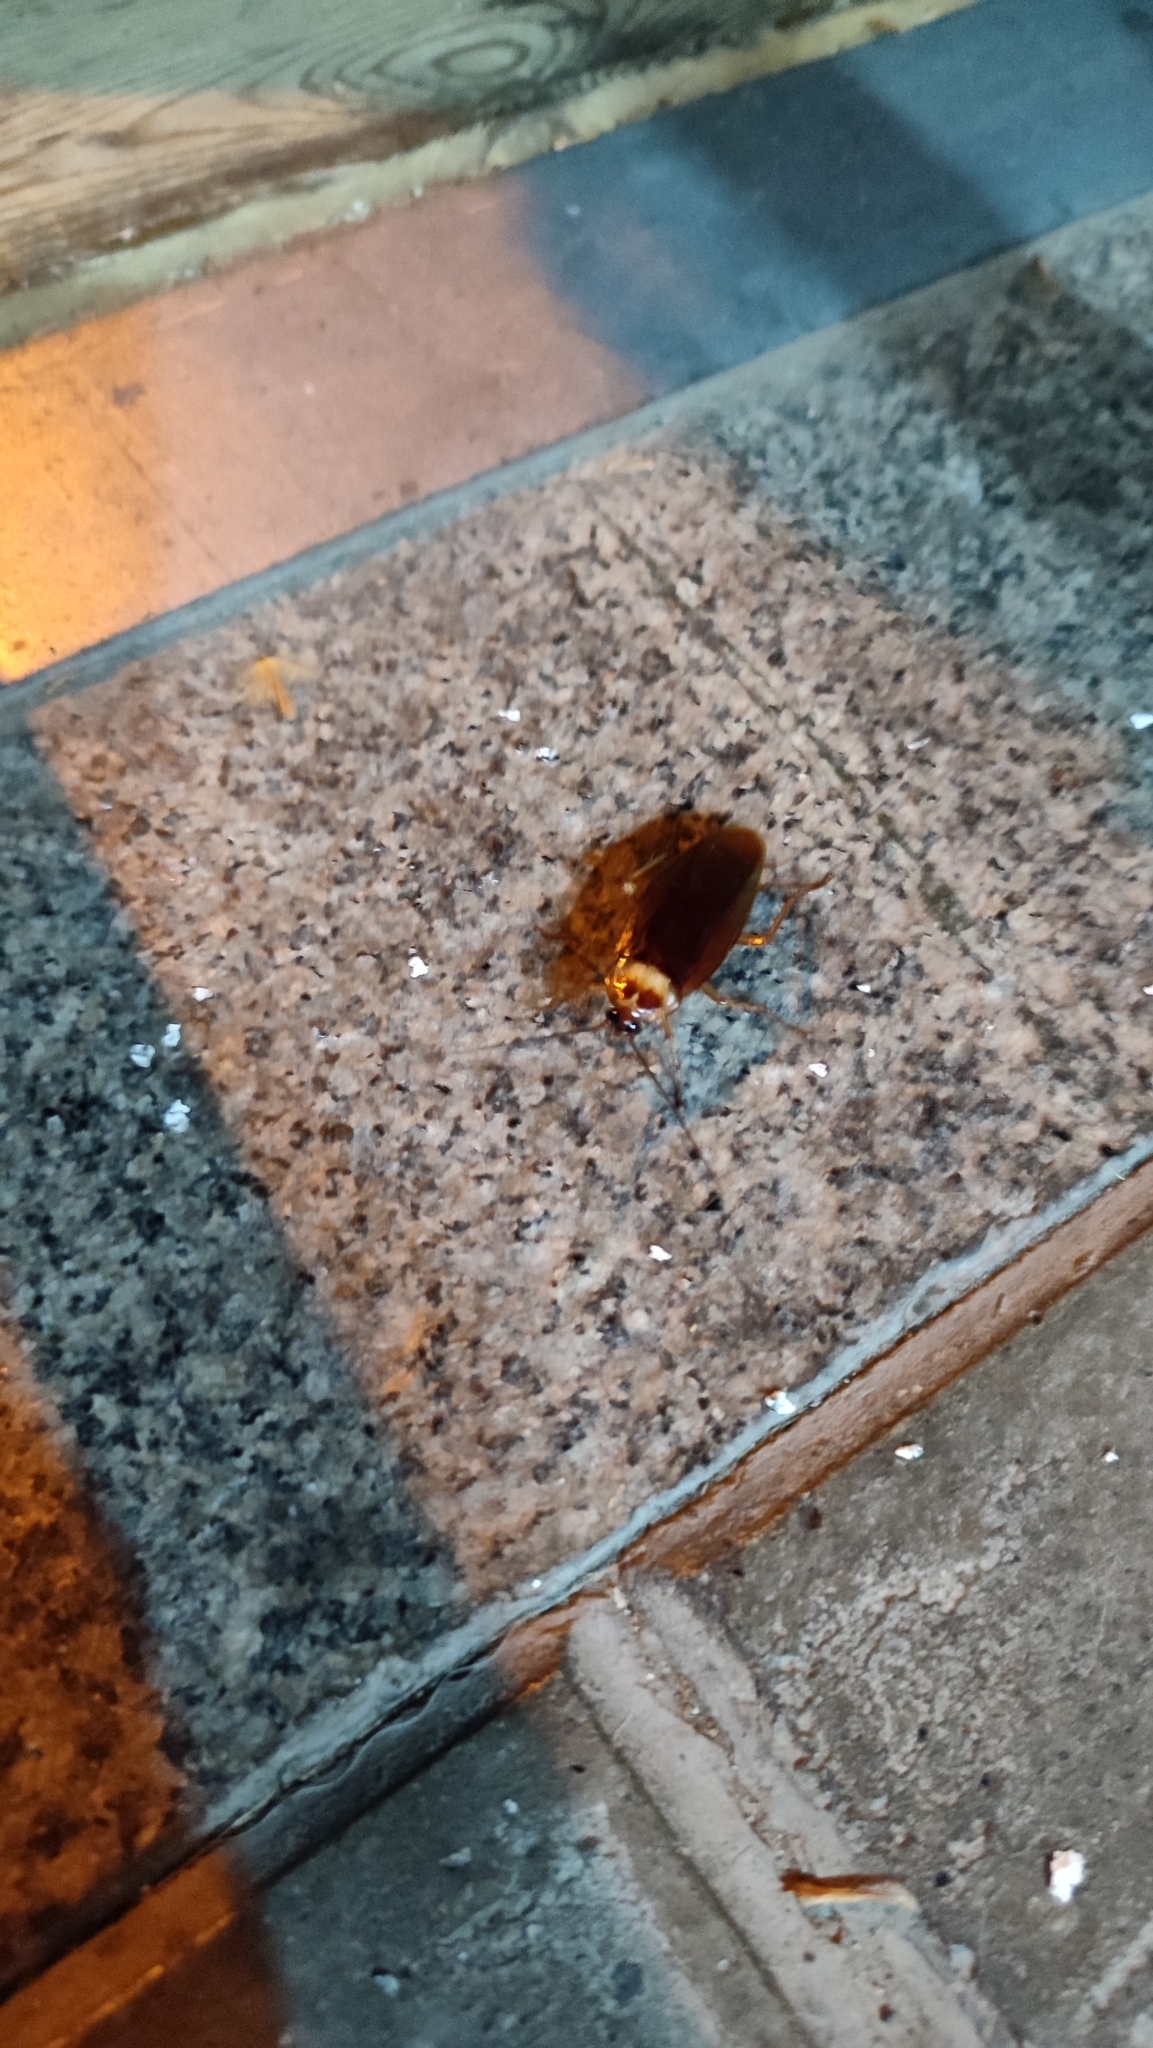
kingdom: Animalia
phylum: Arthropoda
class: Insecta
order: Blattodea
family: Blattidae
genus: Periplaneta
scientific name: Periplaneta americana
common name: American cockroach
